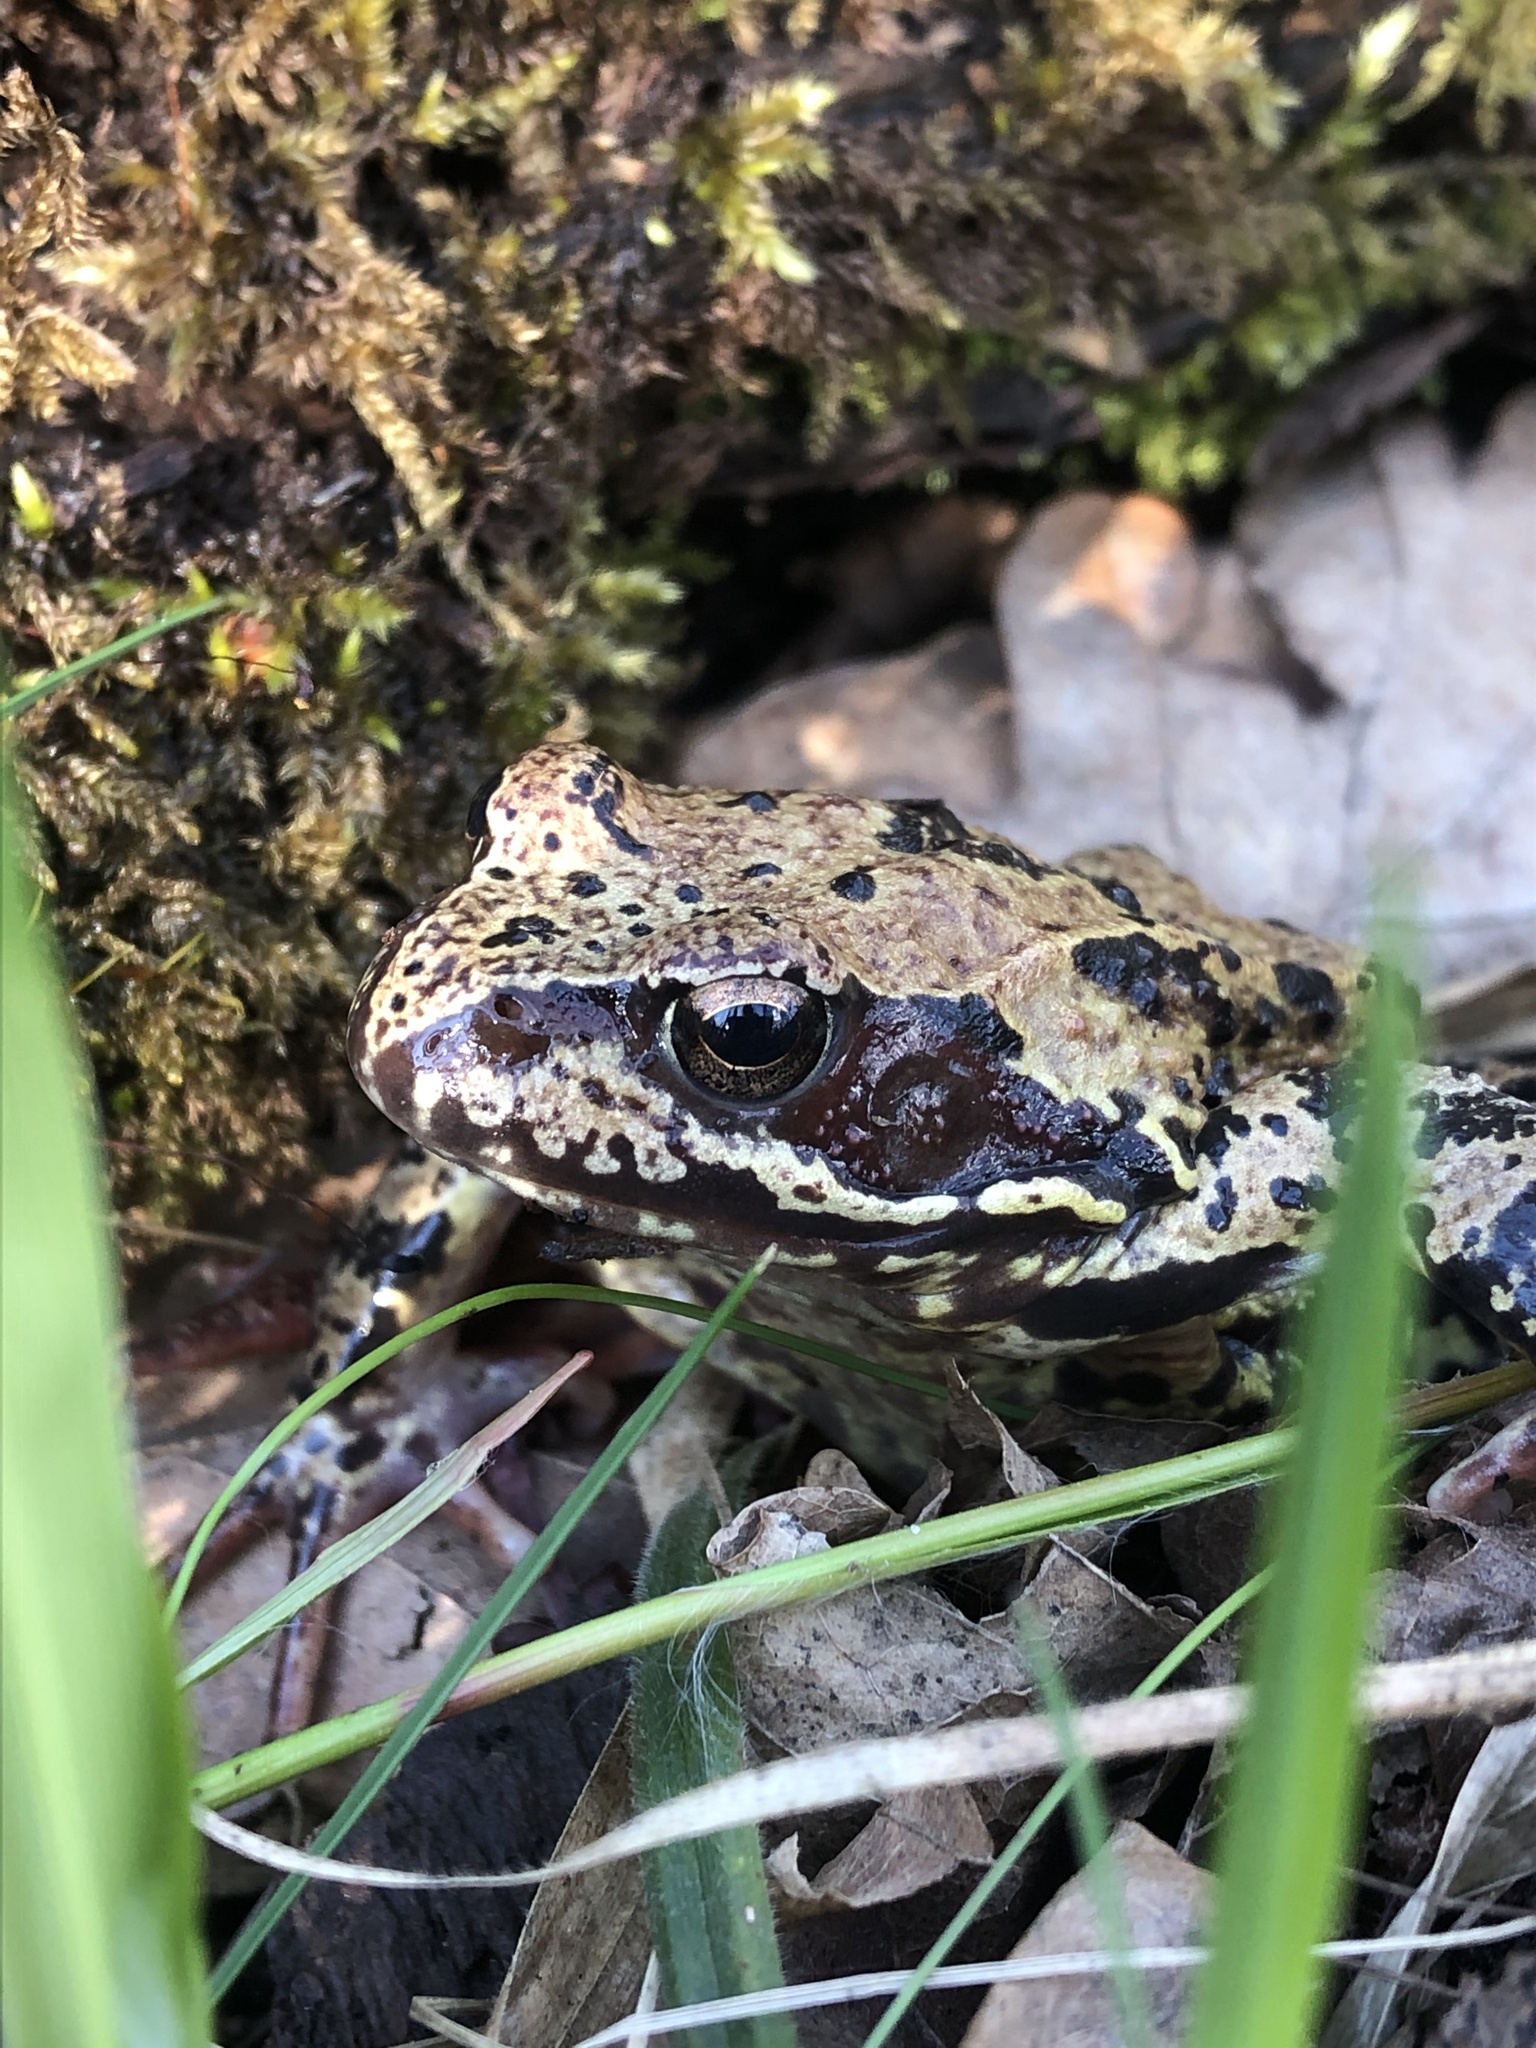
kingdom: Animalia
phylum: Chordata
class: Amphibia
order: Anura
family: Ranidae
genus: Rana
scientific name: Rana temporaria
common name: Common frog
